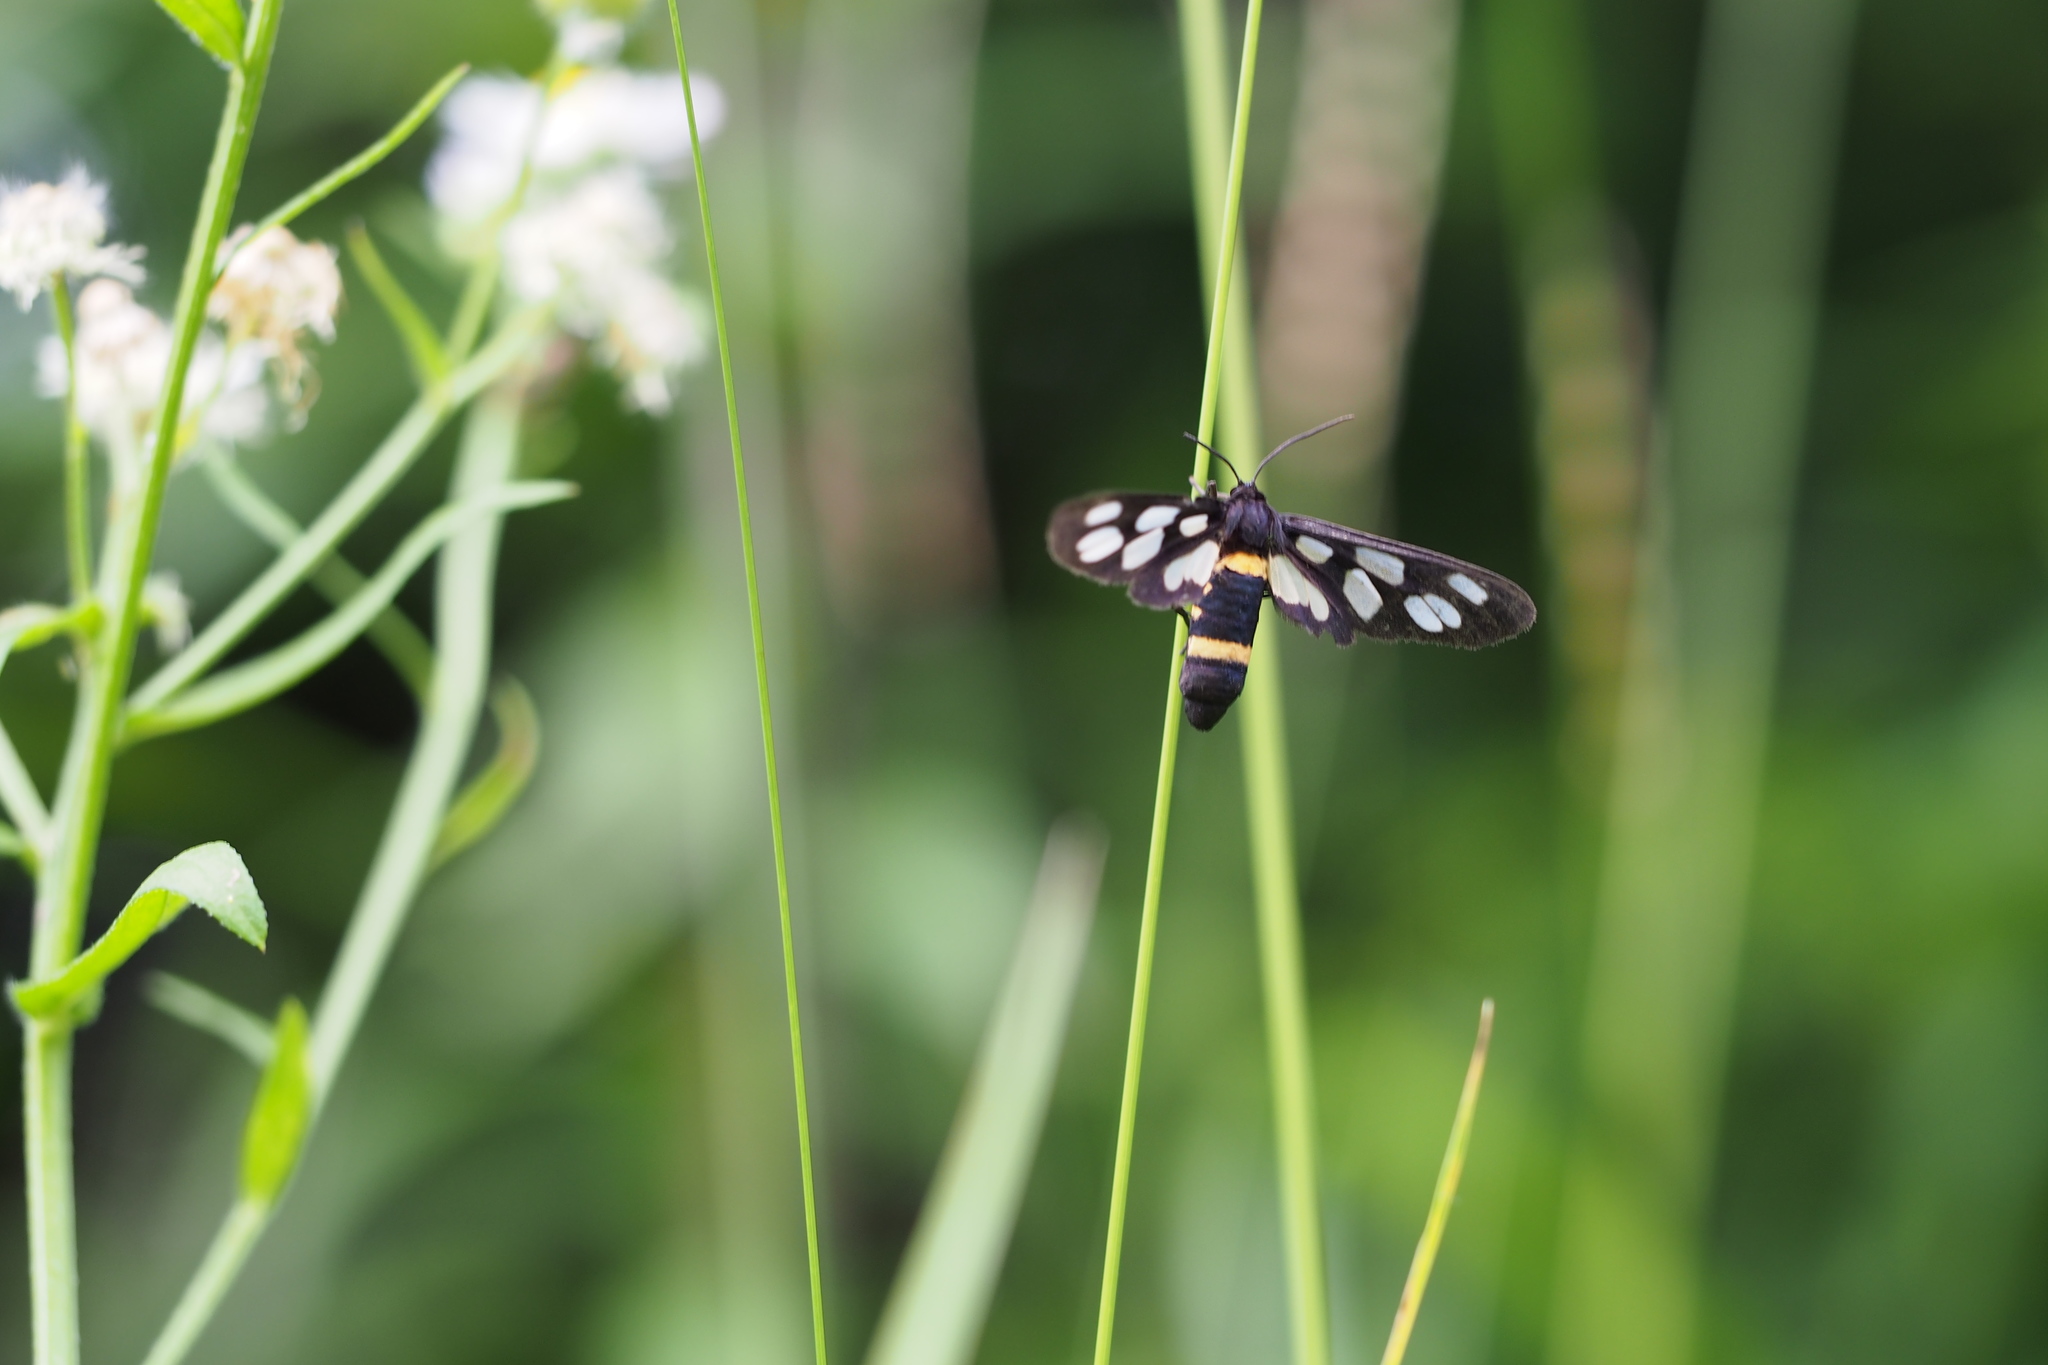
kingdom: Animalia
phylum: Arthropoda
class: Insecta
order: Lepidoptera
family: Erebidae
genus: Amata
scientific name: Amata fortunei
